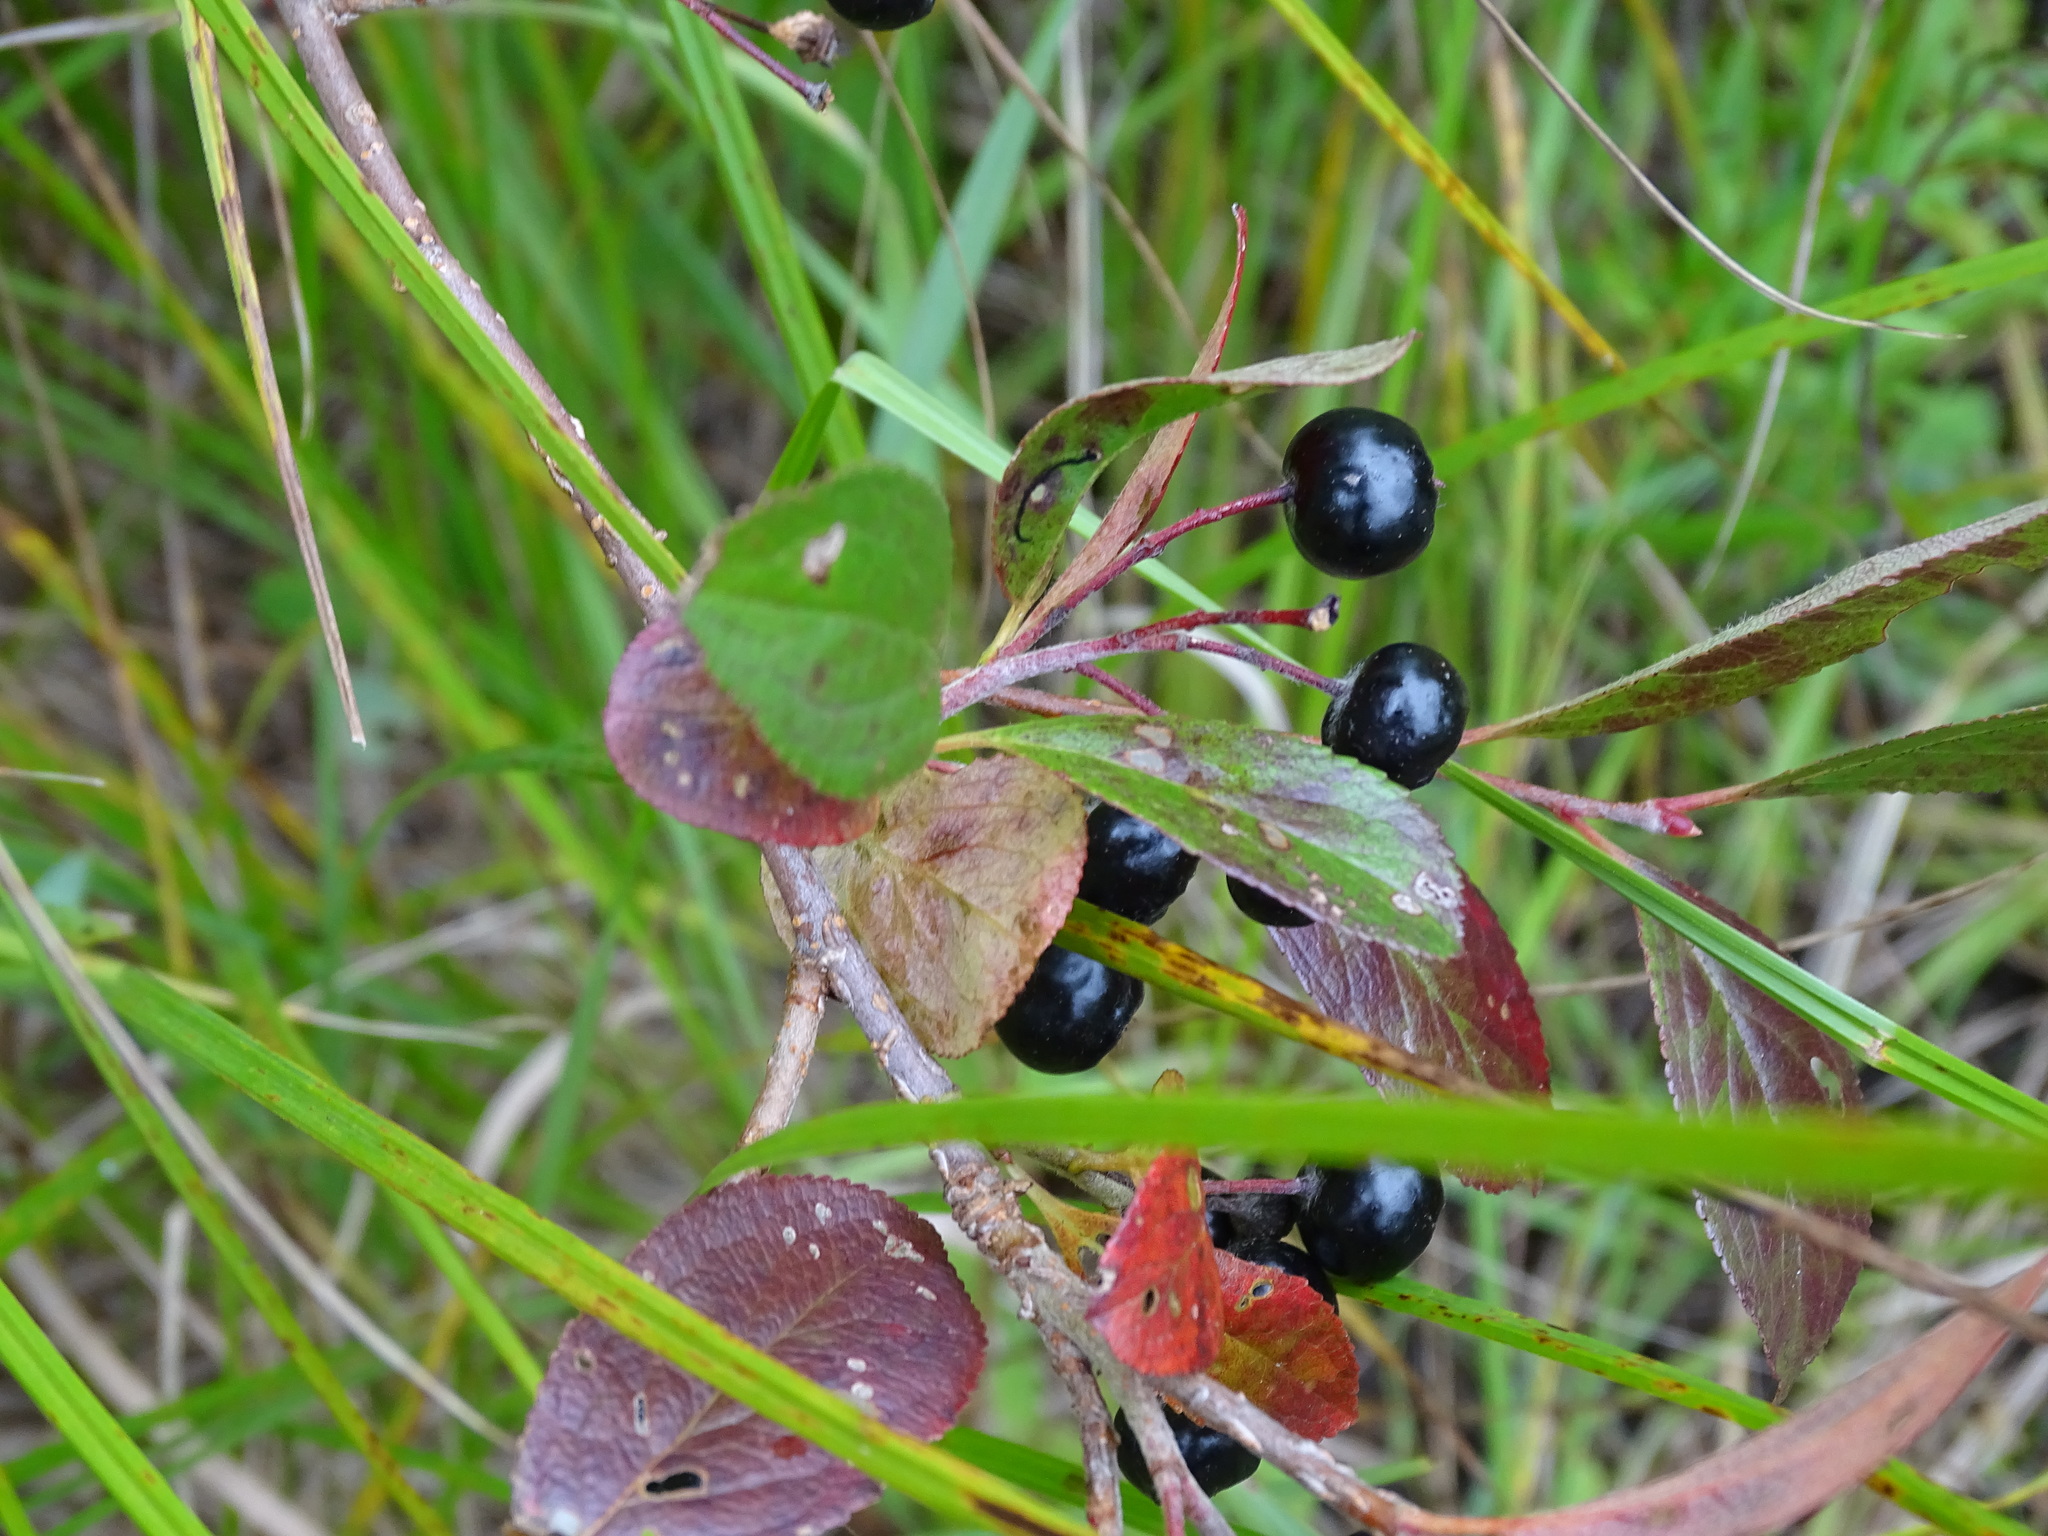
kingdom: Plantae
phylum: Tracheophyta
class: Magnoliopsida
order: Rosales
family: Rosaceae
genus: Aronia
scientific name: Aronia melanocarpa
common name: Black chokeberry
